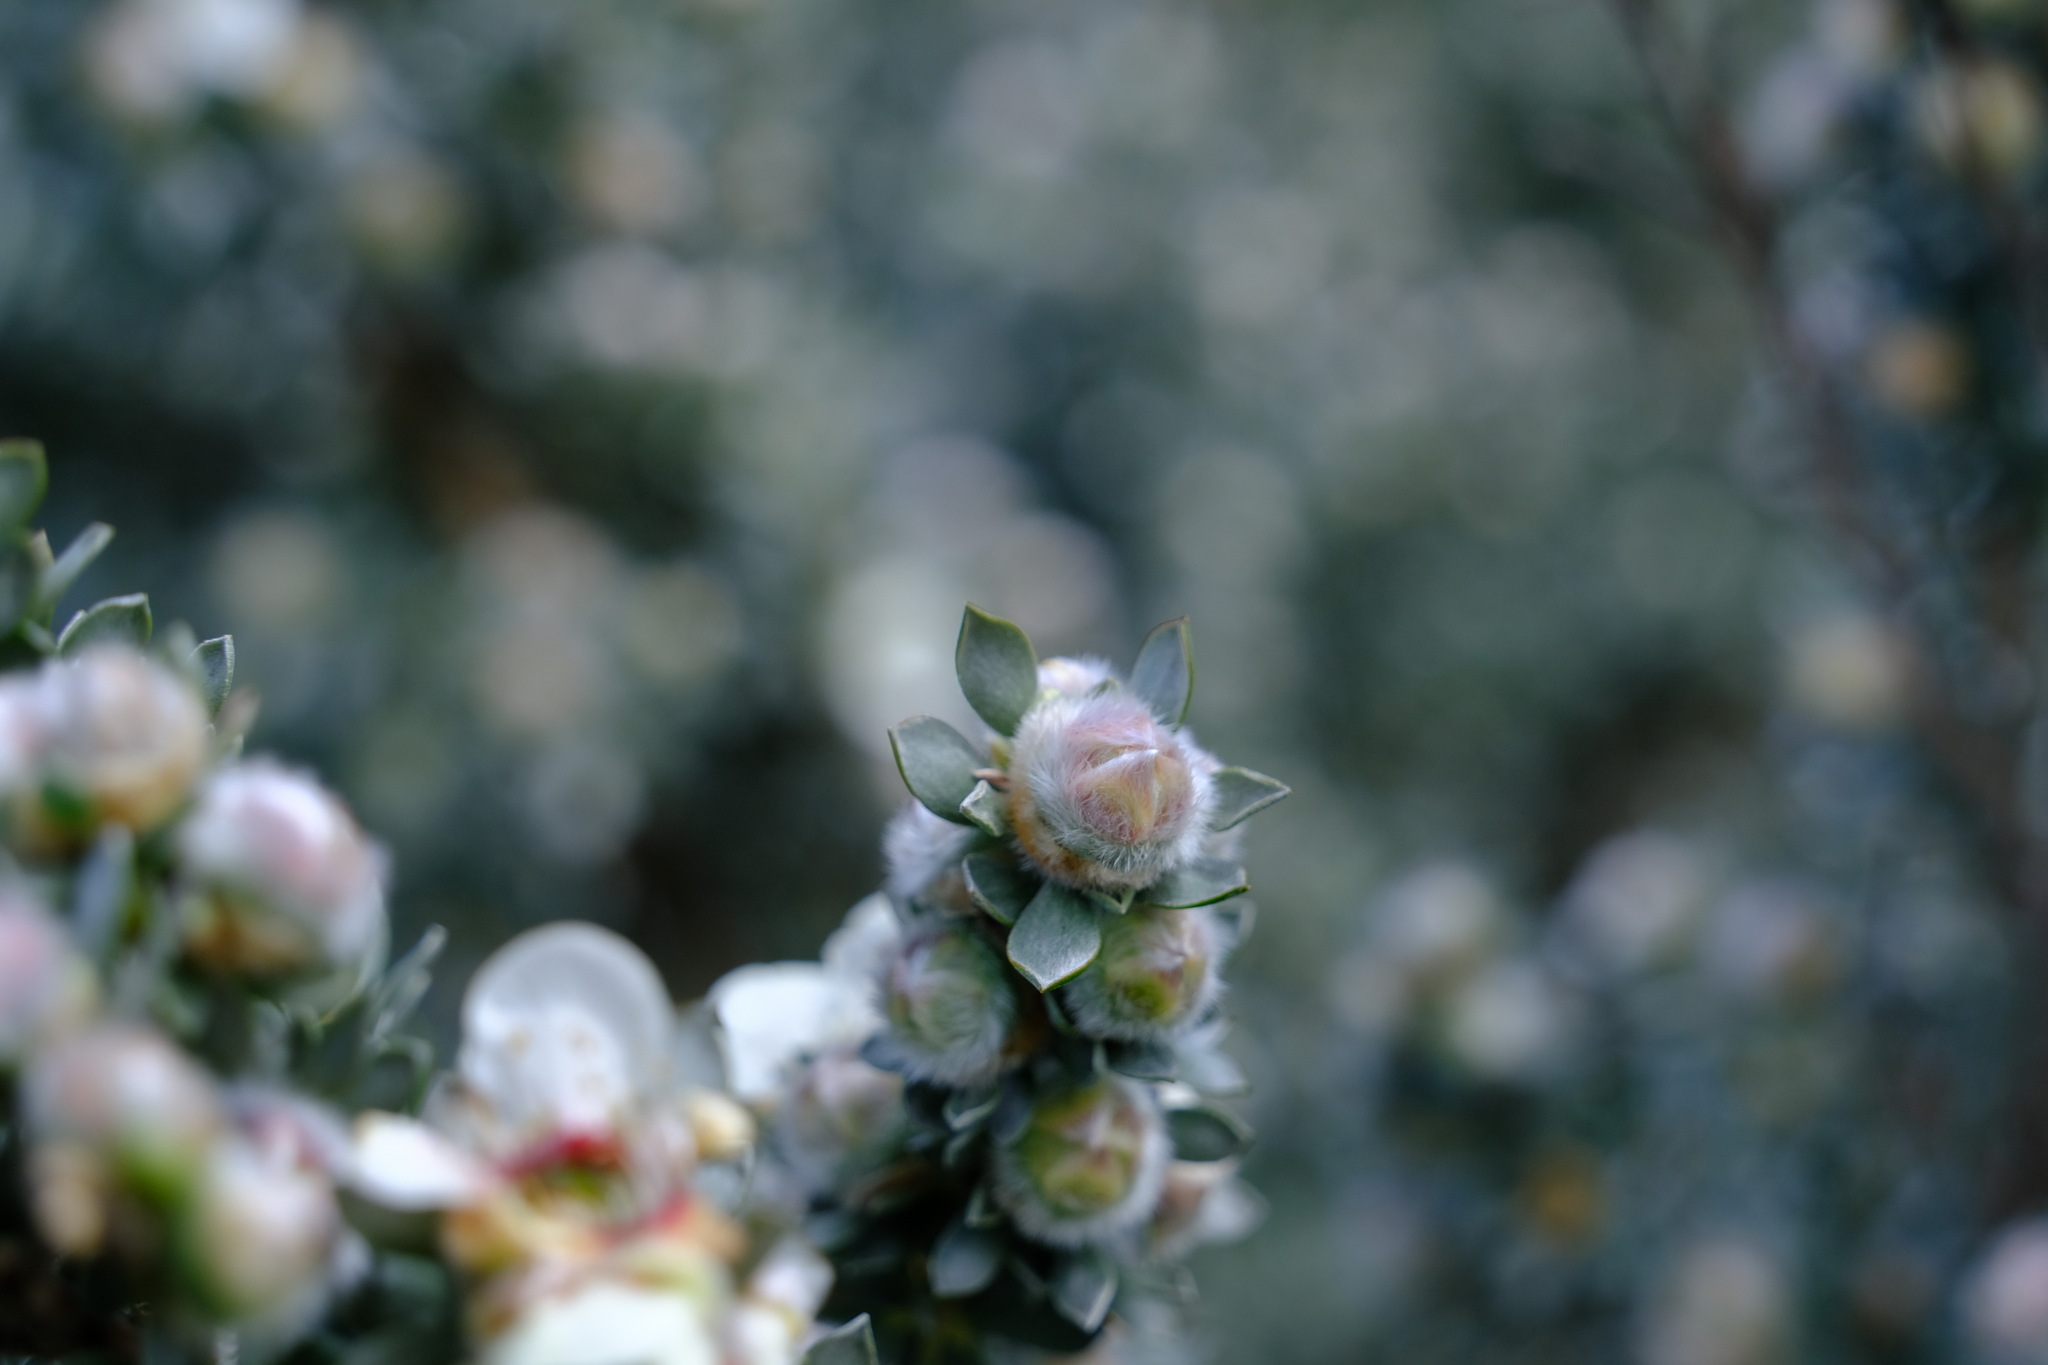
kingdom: Plantae
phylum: Tracheophyta
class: Magnoliopsida
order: Myrtales
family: Myrtaceae
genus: Leptospermum
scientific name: Leptospermum lanigerum
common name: Woolly tea-tree
